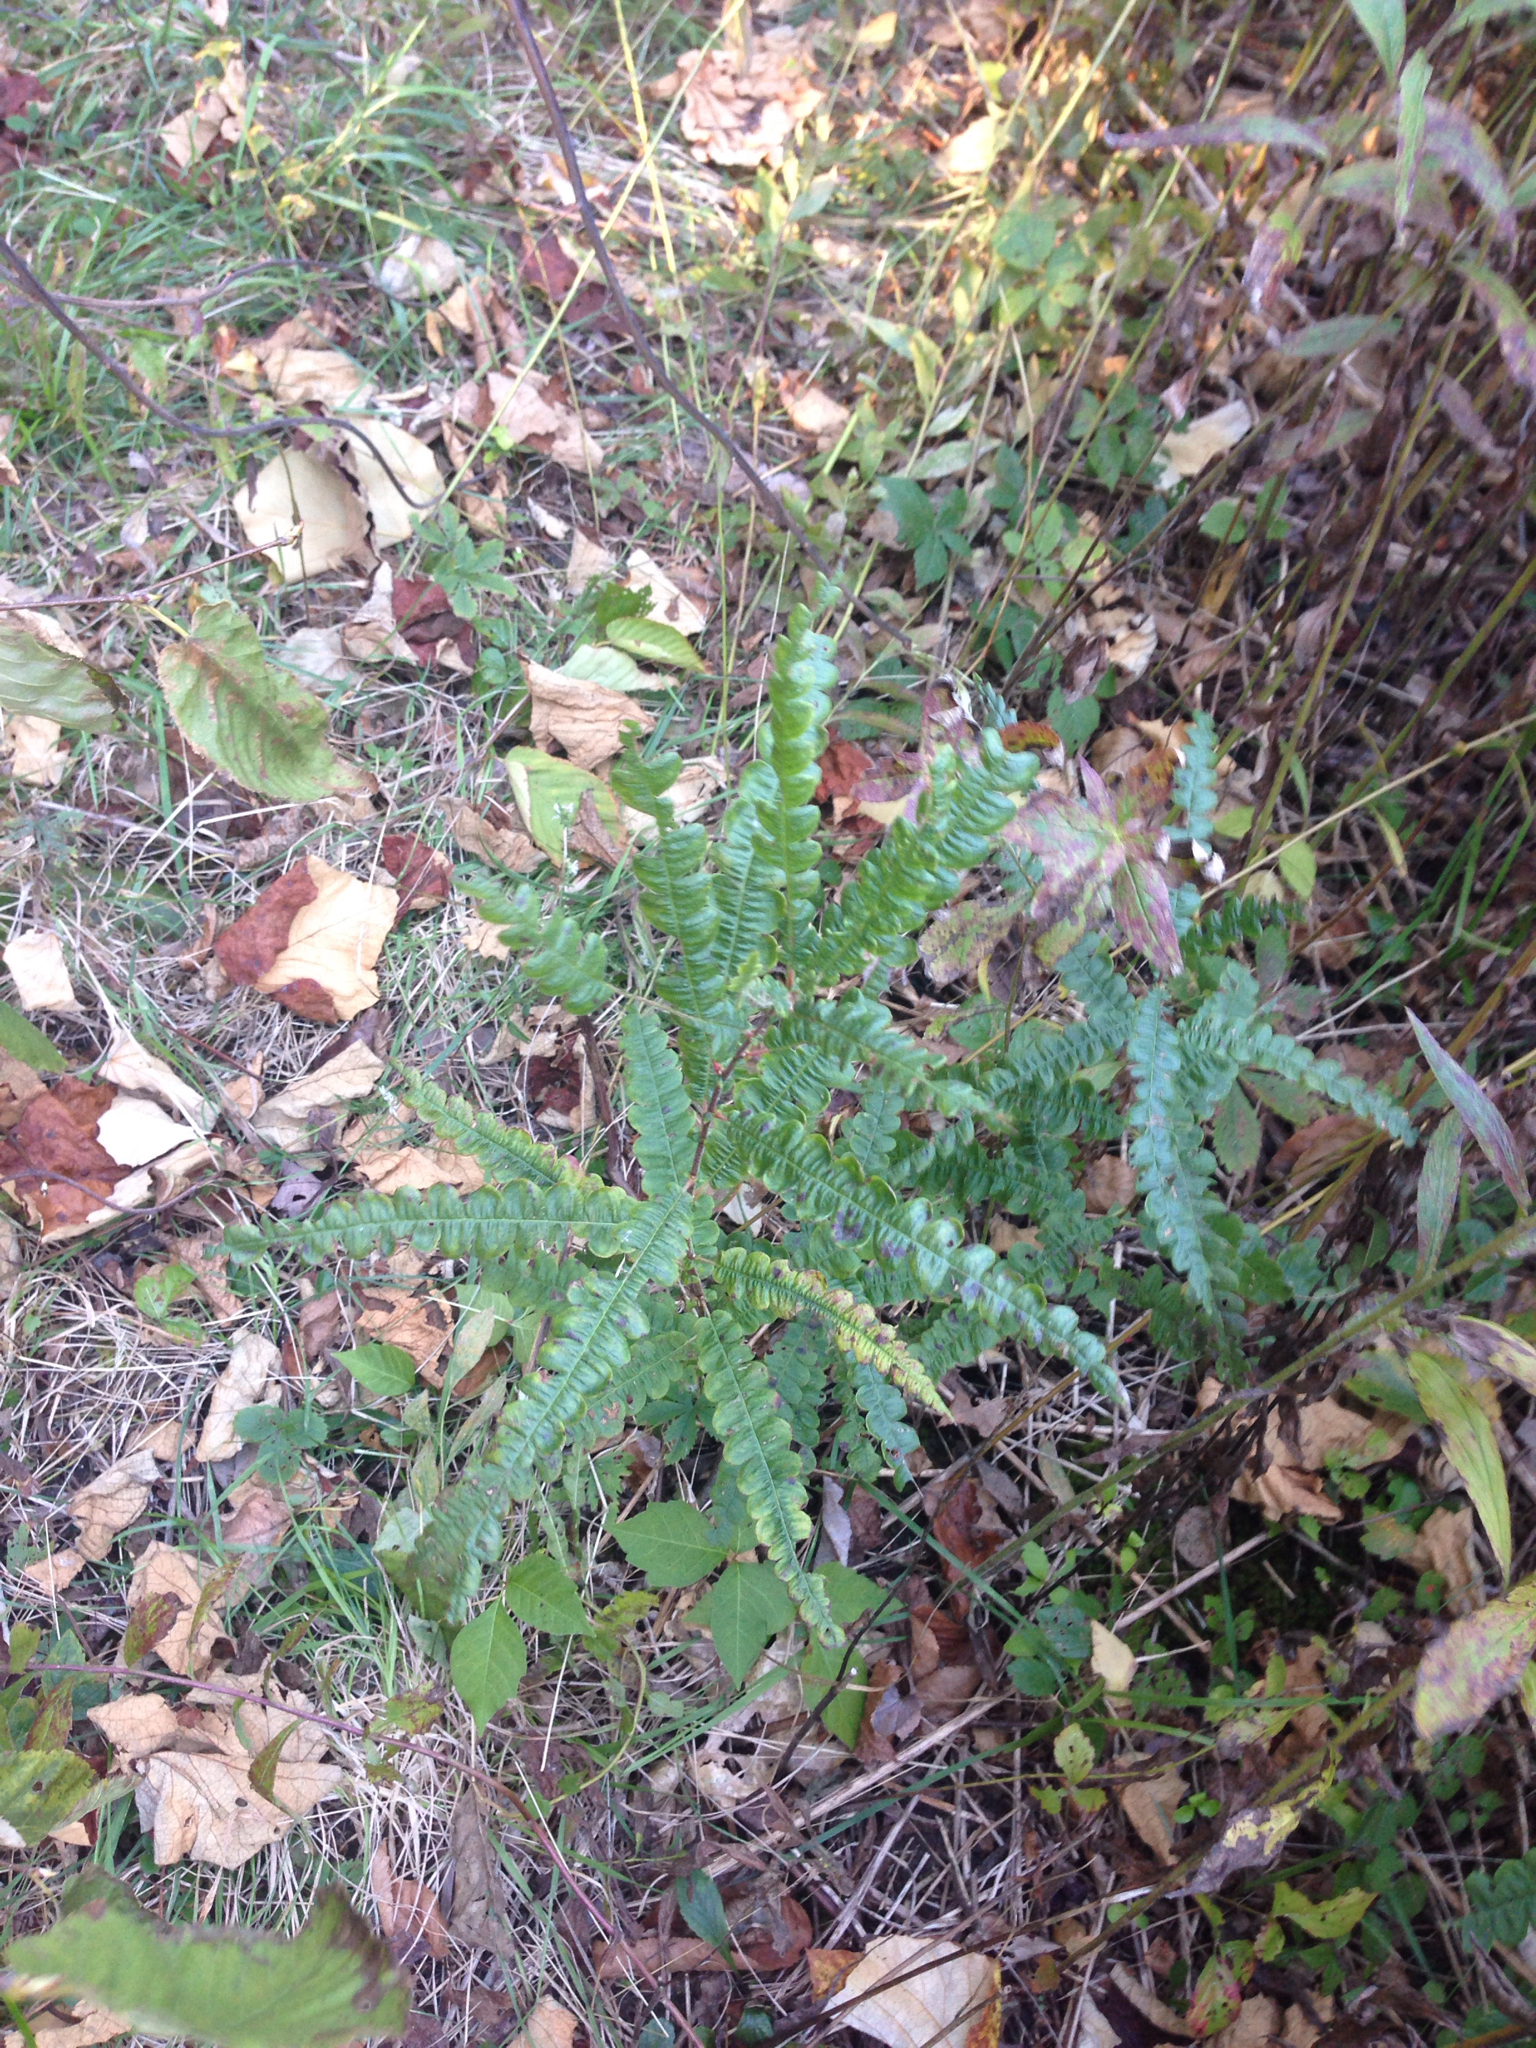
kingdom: Plantae
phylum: Tracheophyta
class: Magnoliopsida
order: Fagales
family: Myricaceae
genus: Comptonia
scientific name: Comptonia peregrina
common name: Sweet-fern
